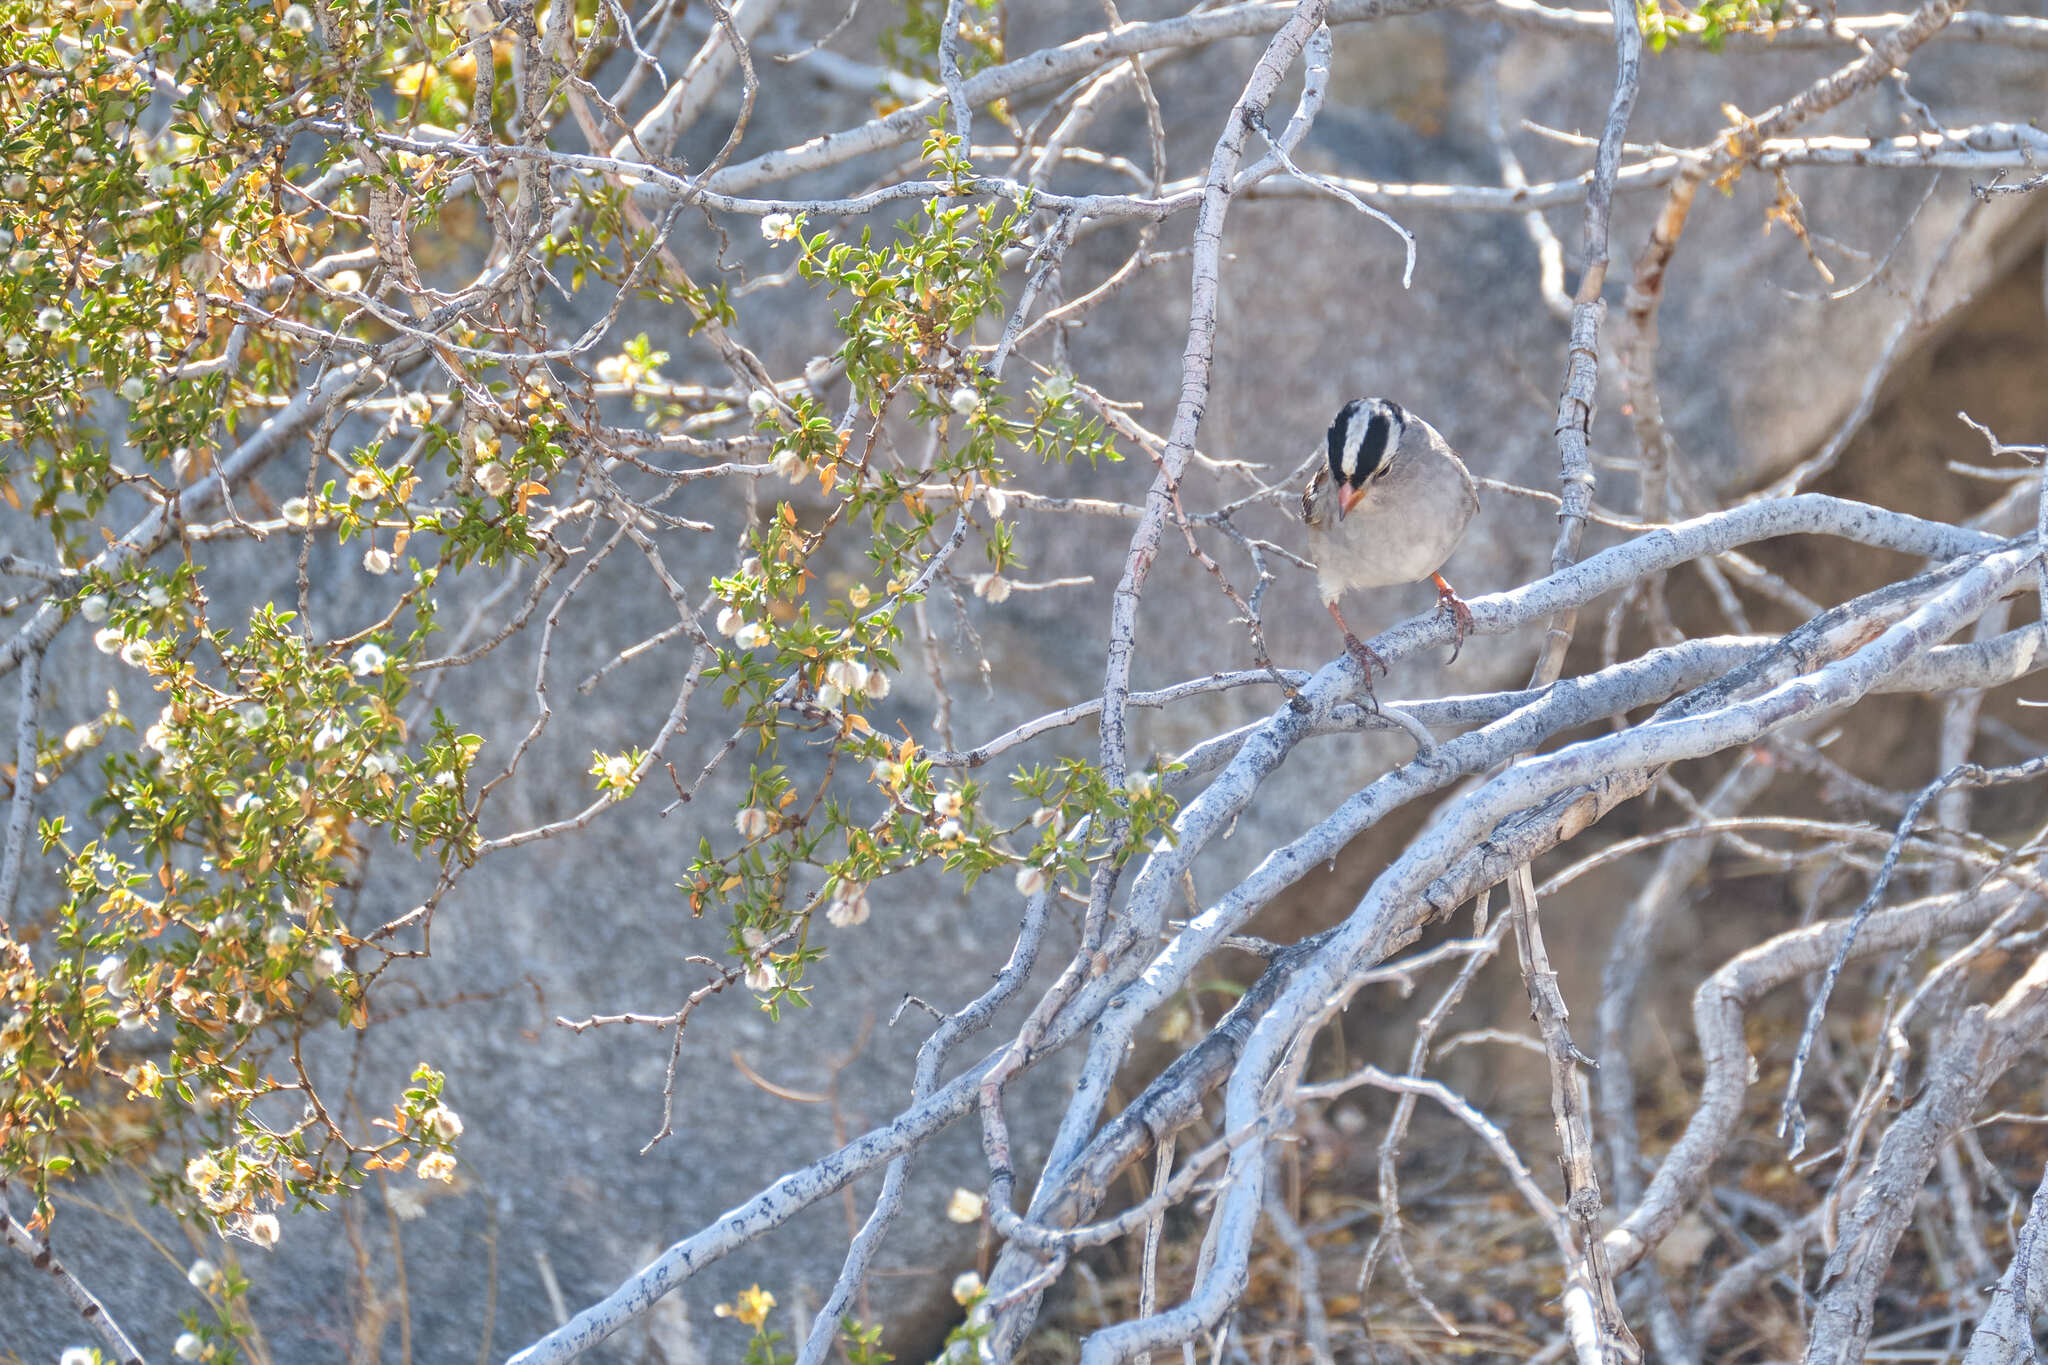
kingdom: Animalia
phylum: Chordata
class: Aves
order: Passeriformes
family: Passerellidae
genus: Zonotrichia
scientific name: Zonotrichia leucophrys
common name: White-crowned sparrow
